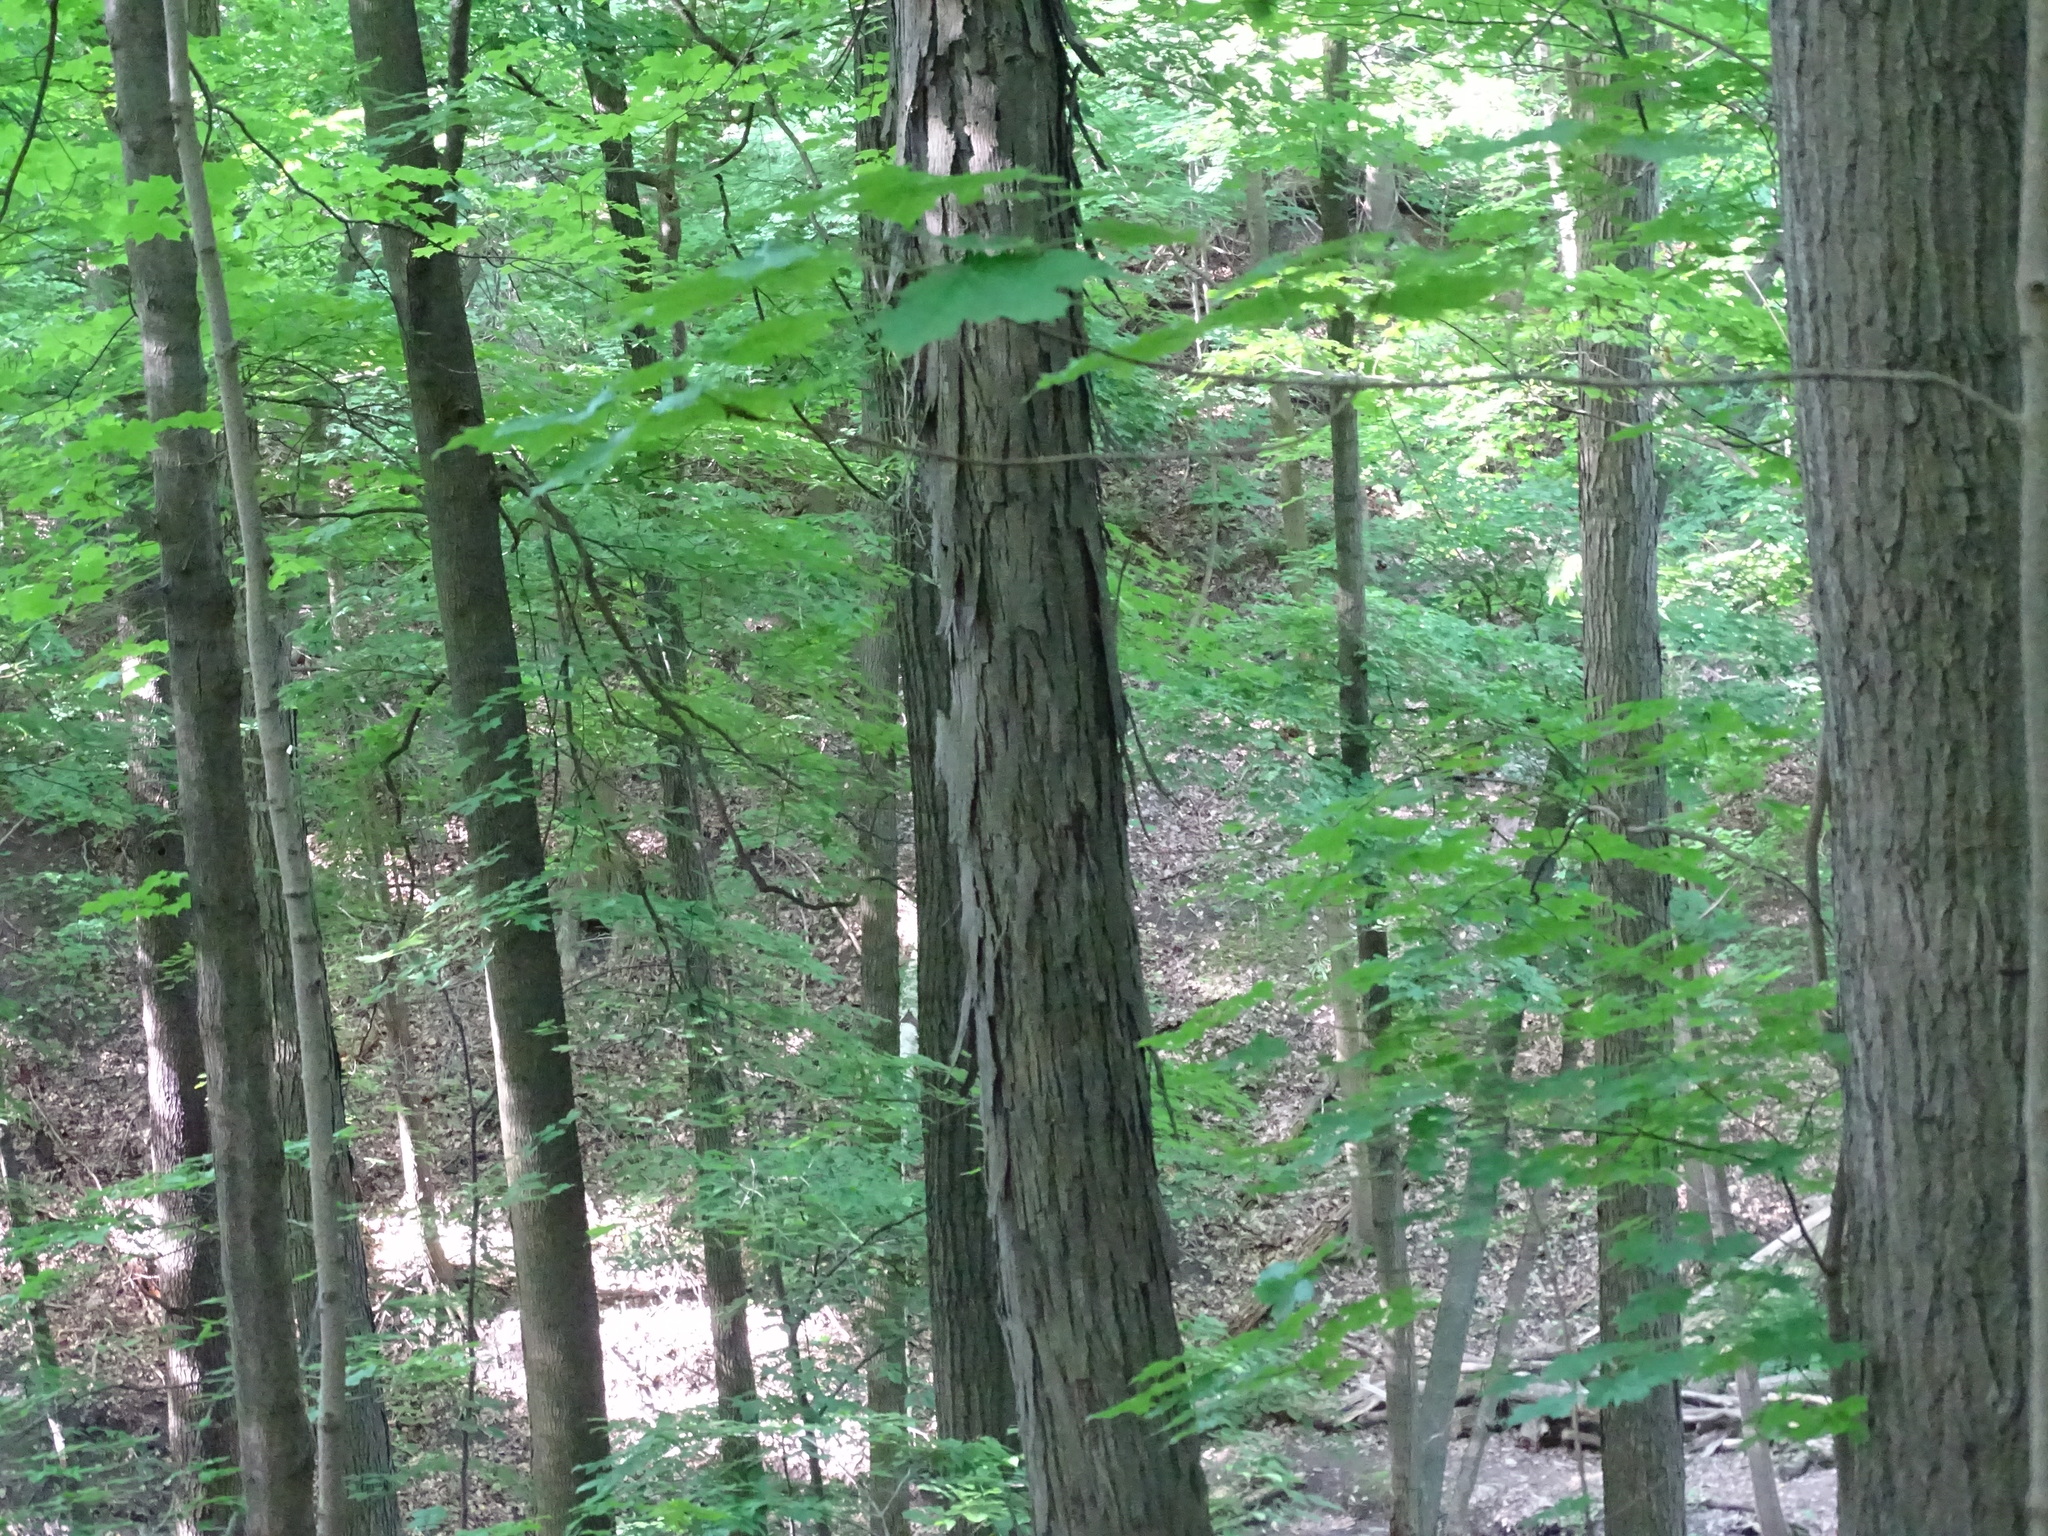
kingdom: Plantae
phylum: Tracheophyta
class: Magnoliopsida
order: Fagales
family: Juglandaceae
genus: Carya
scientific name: Carya ovata
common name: Shagbark hickory
